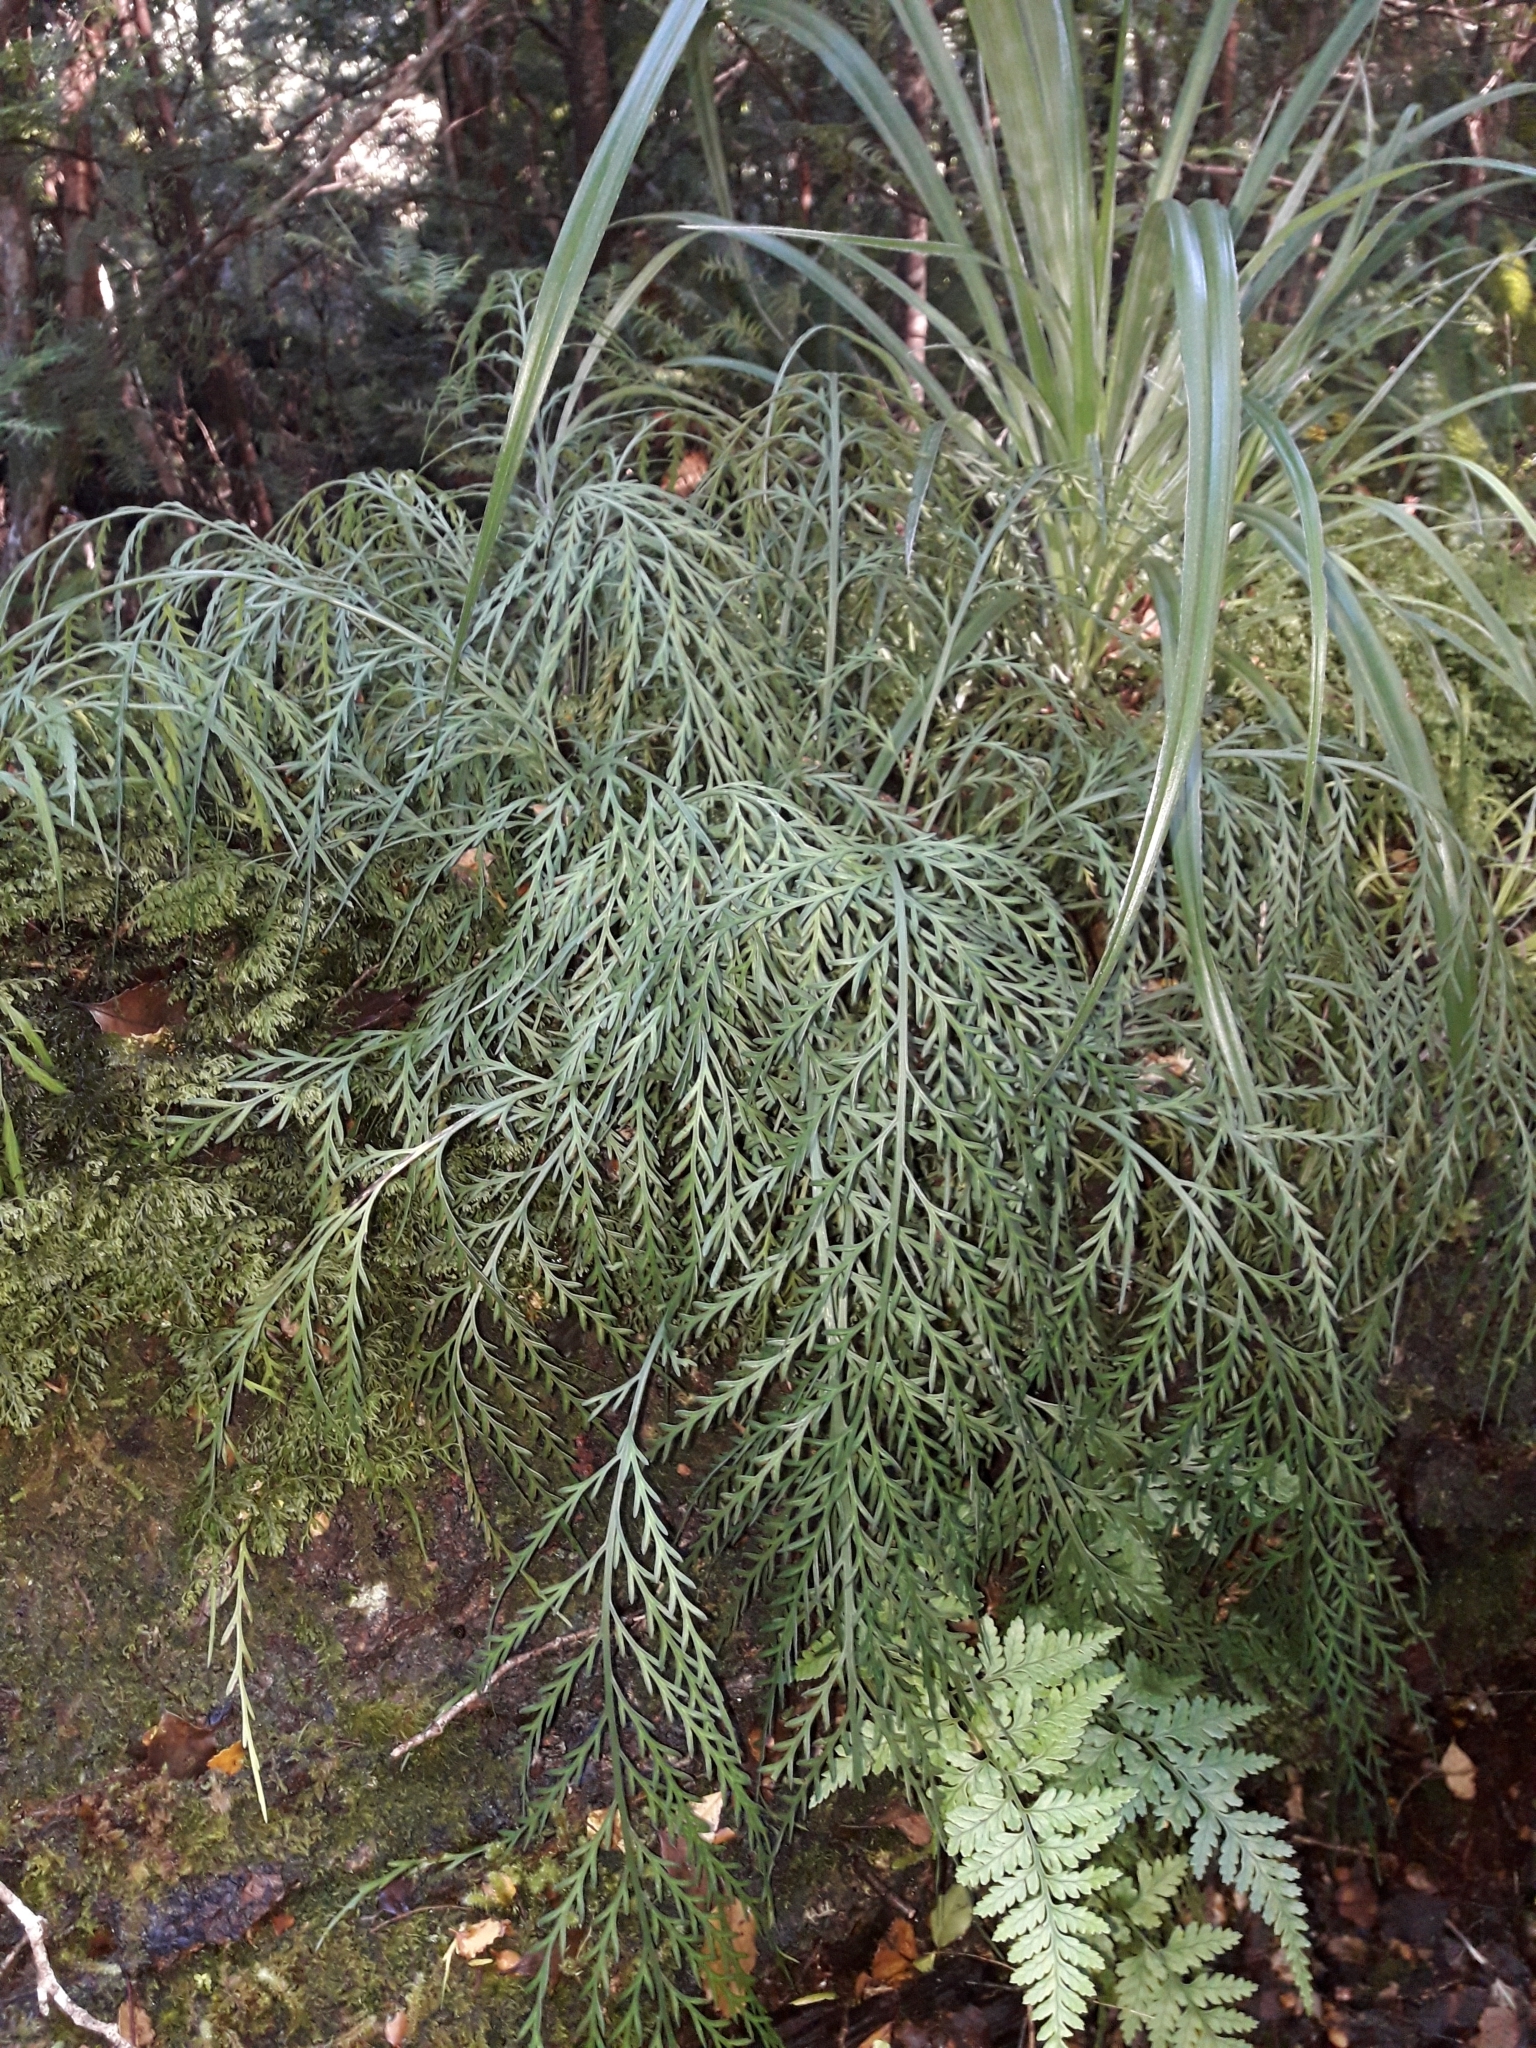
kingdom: Plantae
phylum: Tracheophyta
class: Polypodiopsida
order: Polypodiales
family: Aspleniaceae
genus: Asplenium
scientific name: Asplenium flaccidum
